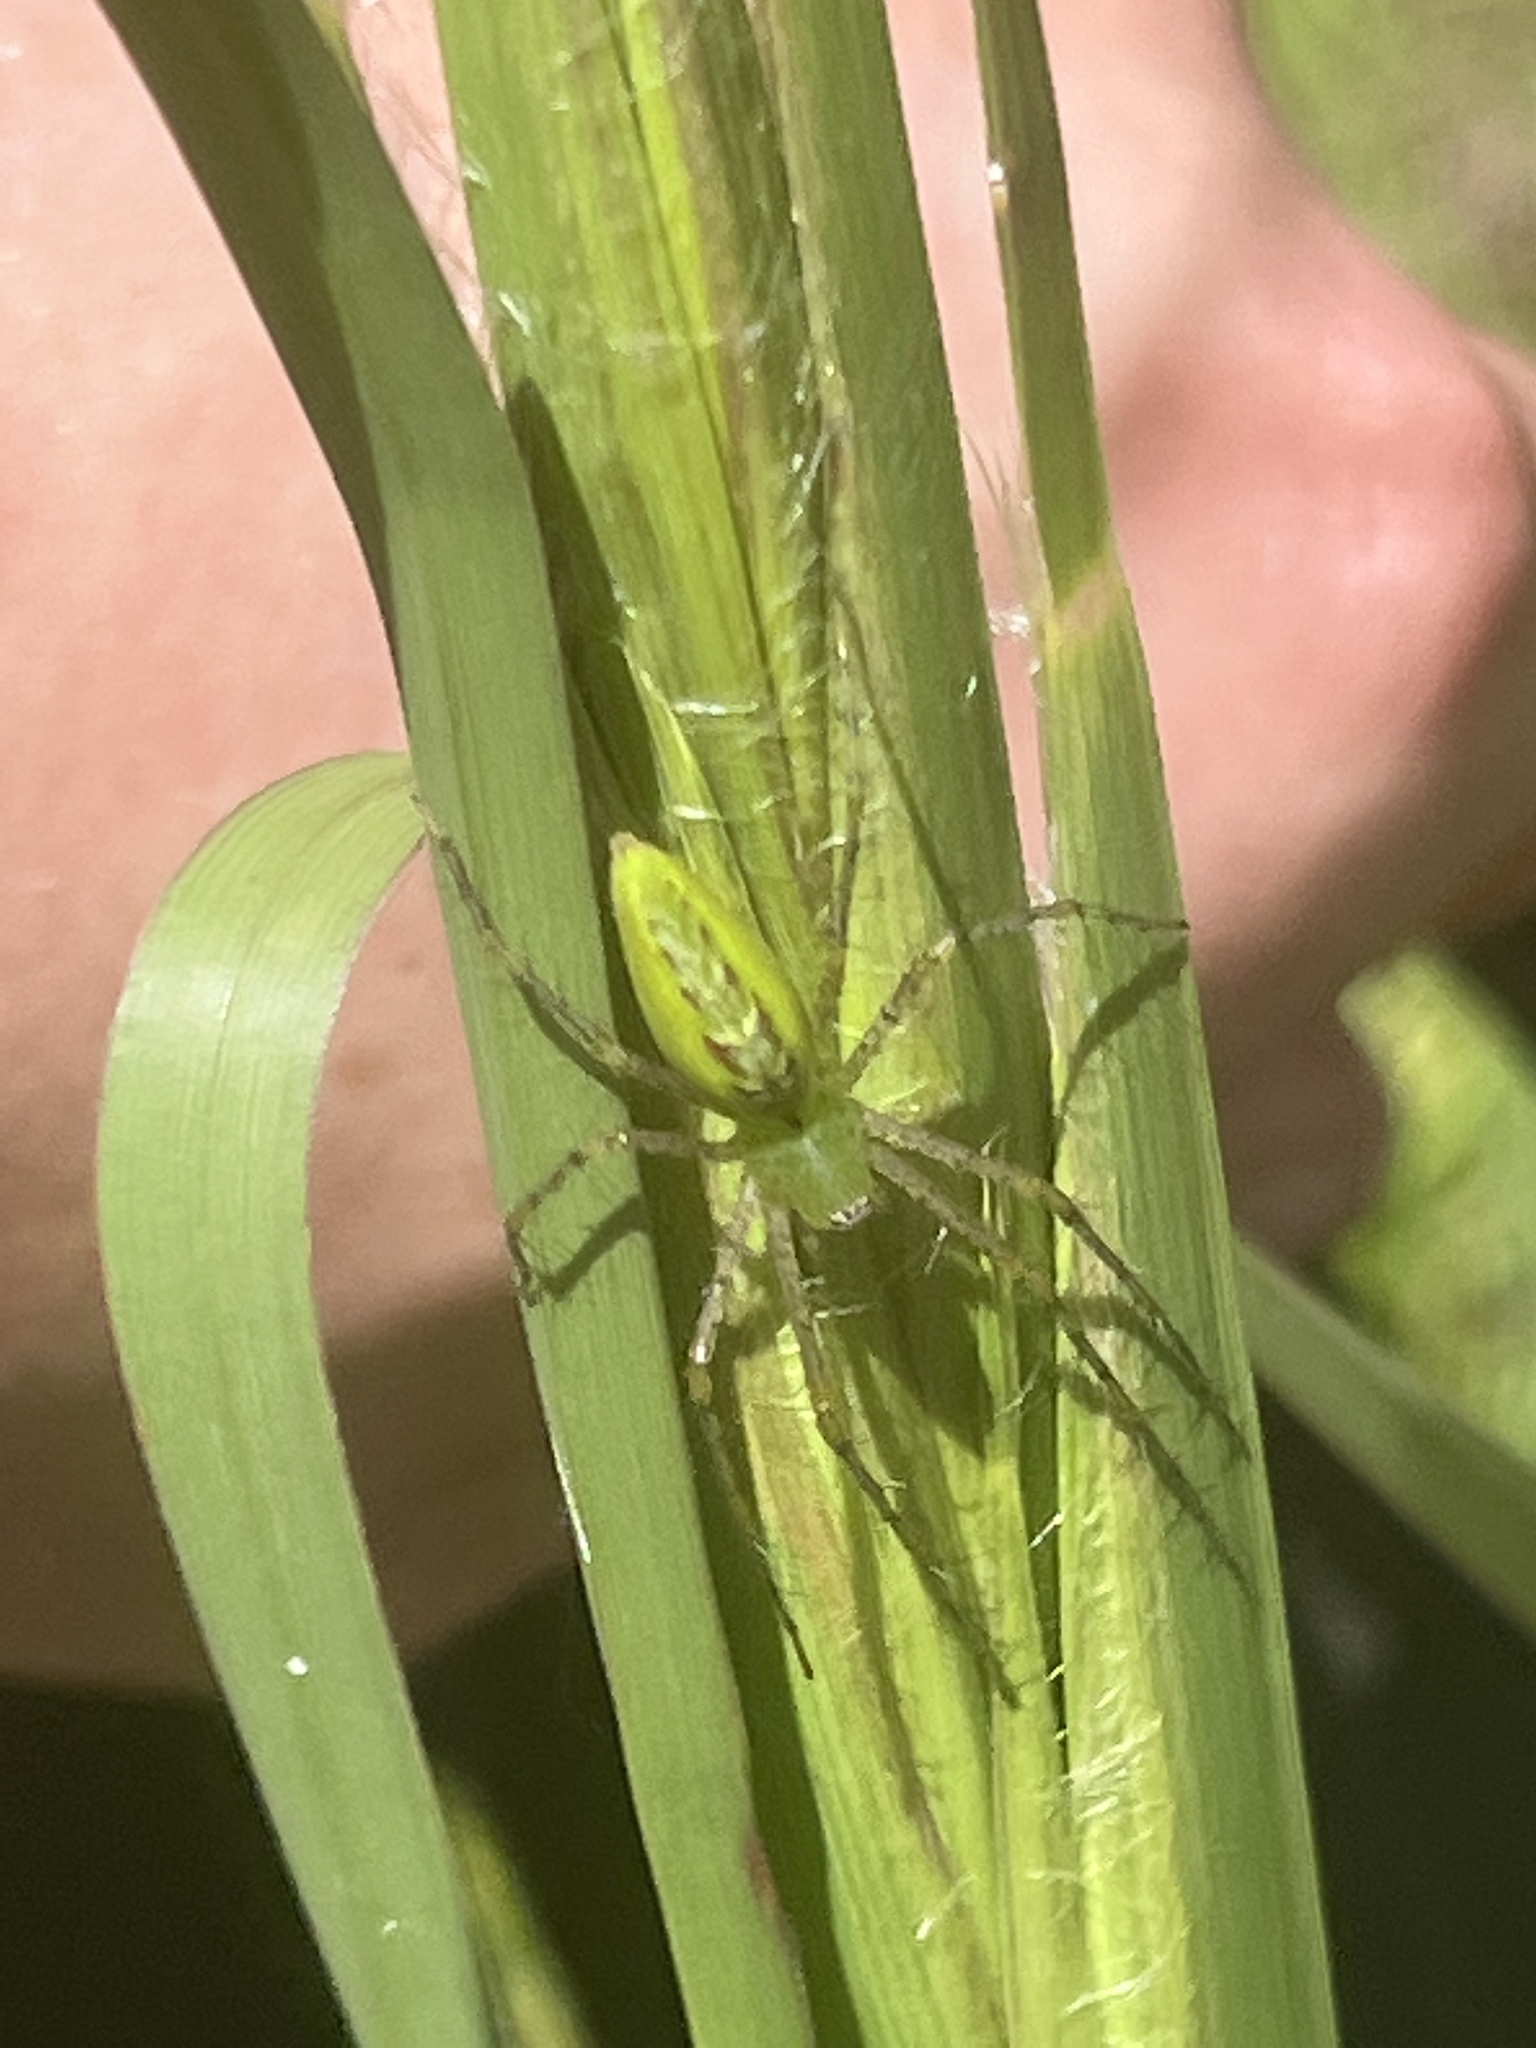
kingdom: Animalia
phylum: Arthropoda
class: Arachnida
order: Araneae
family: Oxyopidae
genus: Peucetia
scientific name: Peucetia viridans
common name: Lynx spiders
